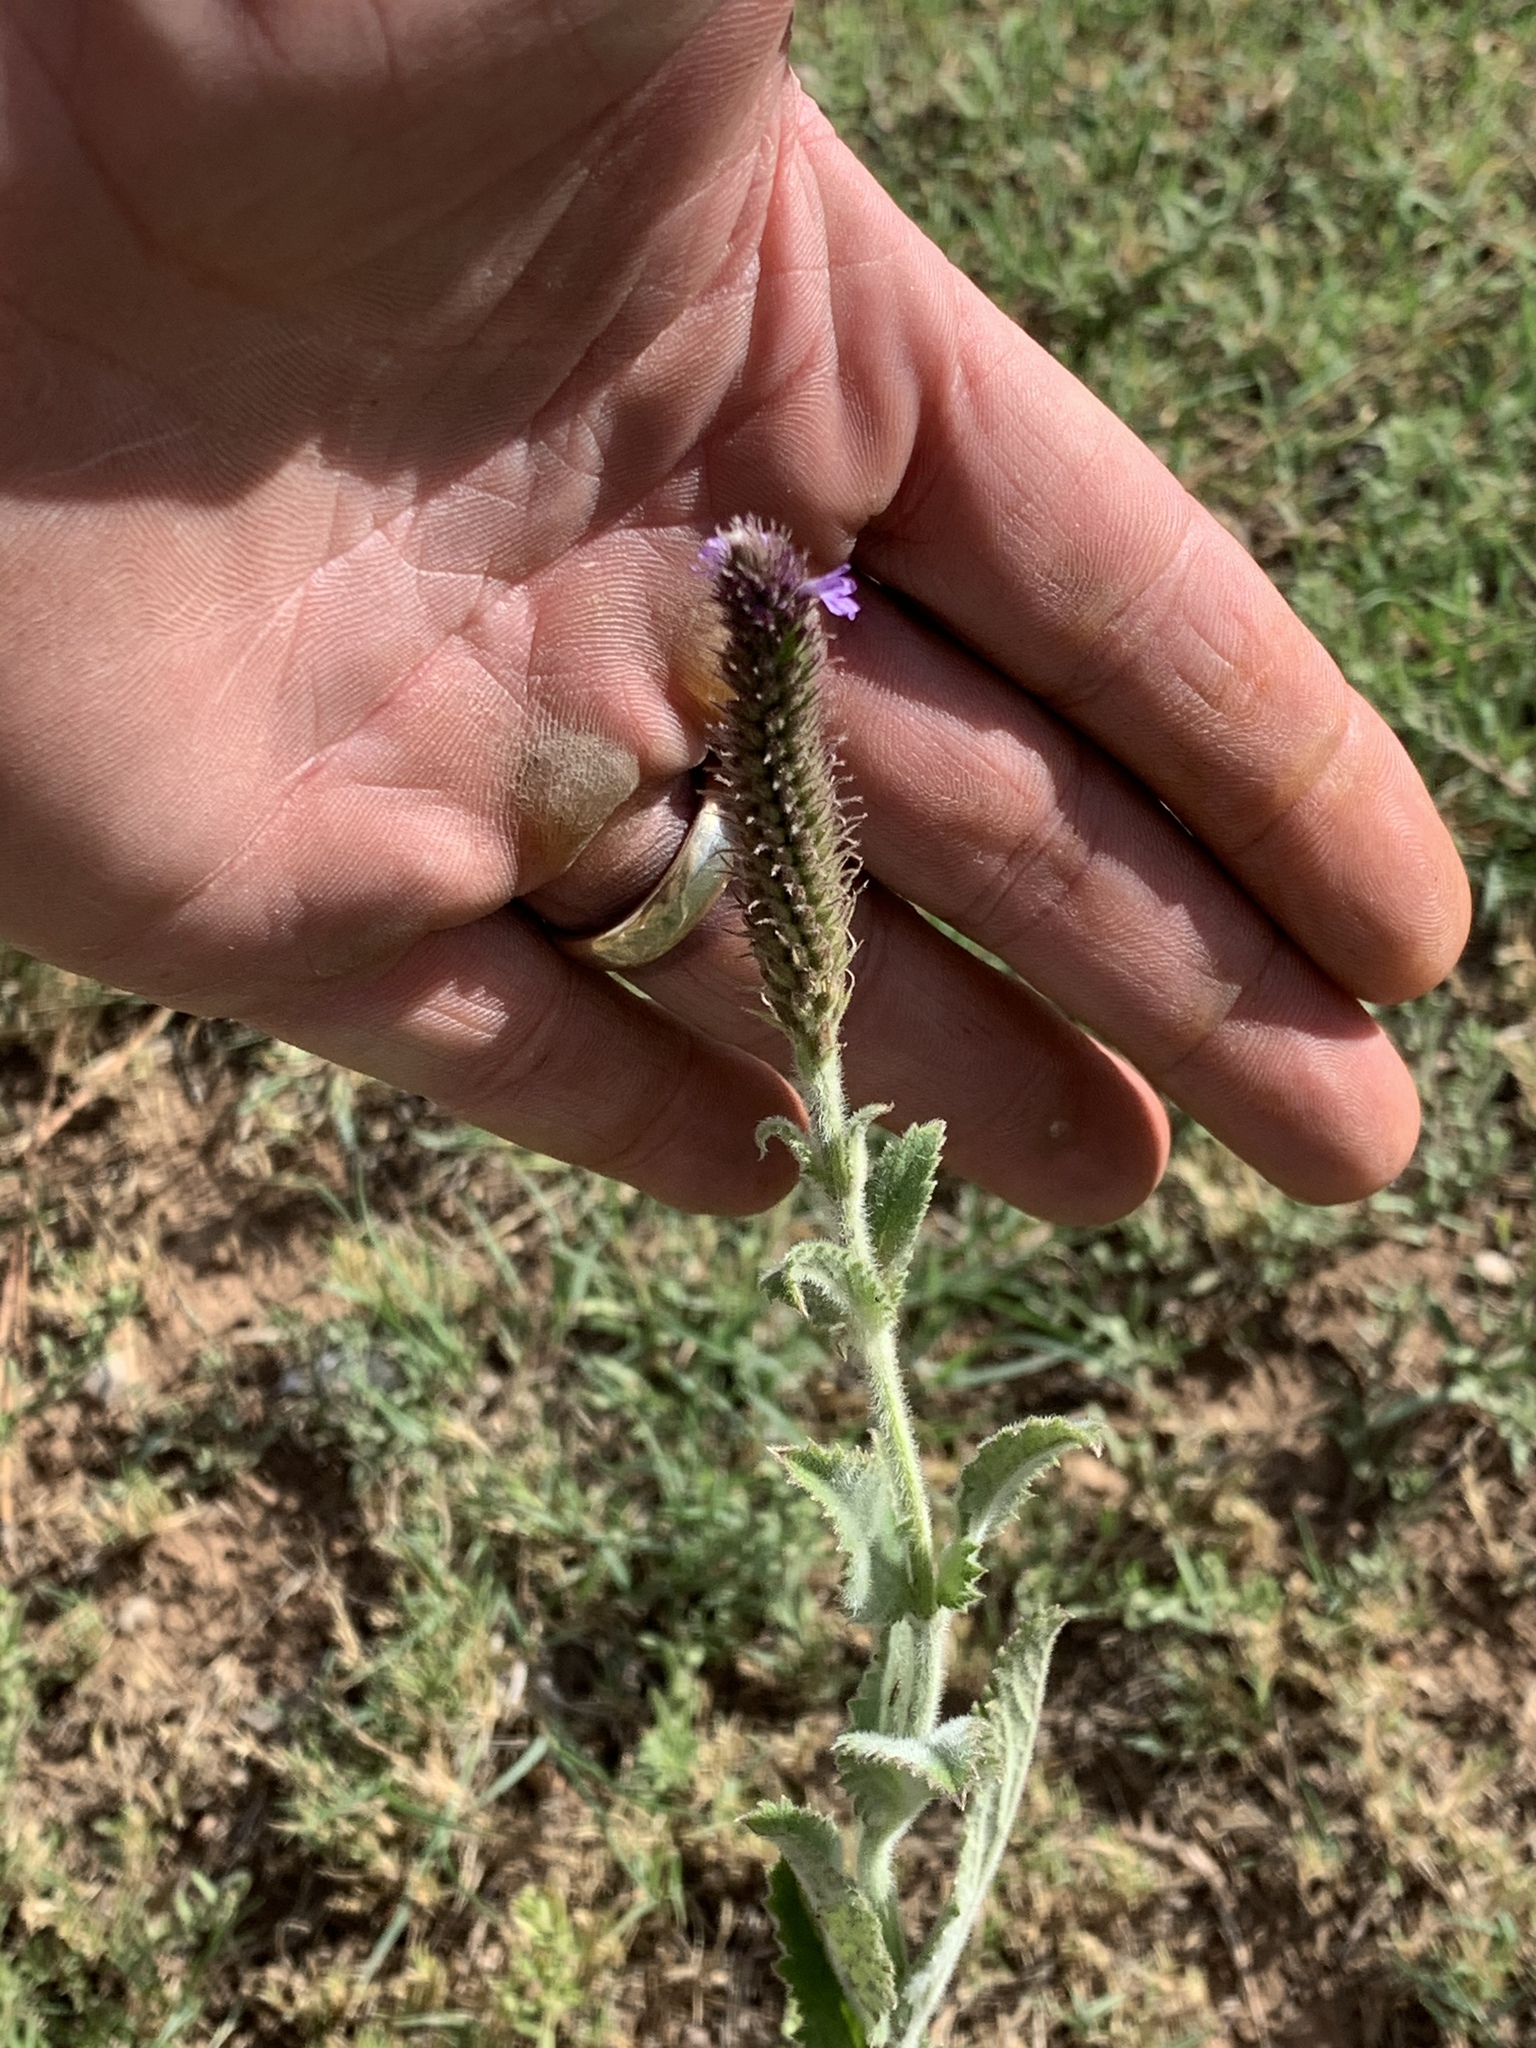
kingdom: Plantae
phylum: Tracheophyta
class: Magnoliopsida
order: Lamiales
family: Verbenaceae
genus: Verbena
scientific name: Verbena macdougalii
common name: New mexico vervain
